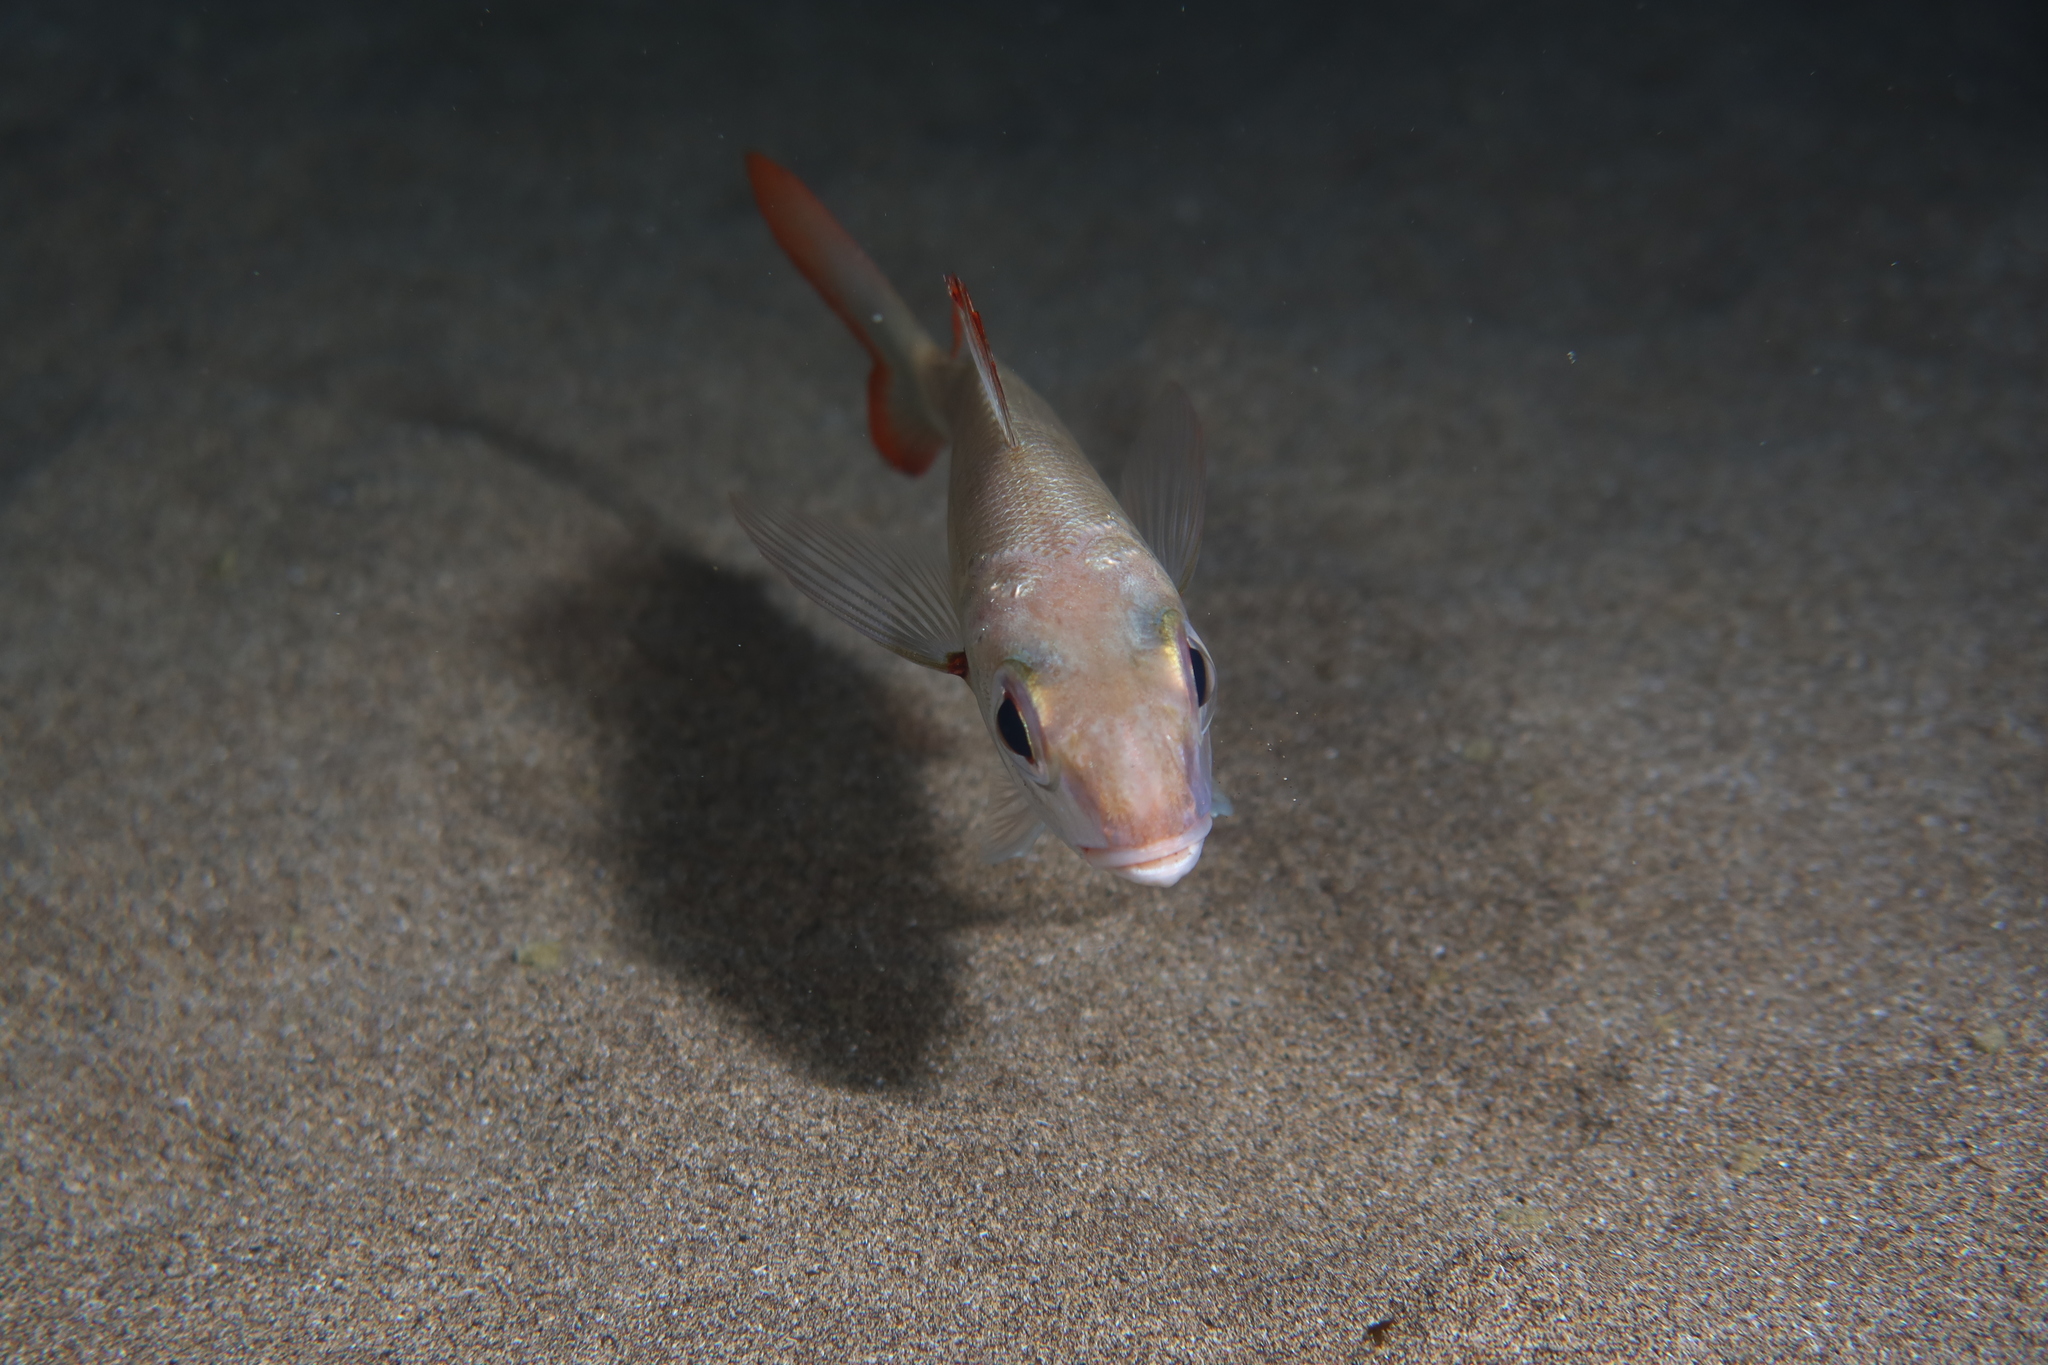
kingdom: Animalia
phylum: Chordata
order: Perciformes
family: Sparidae
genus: Pagellus
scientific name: Pagellus acarne
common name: Axillary sea-bream
